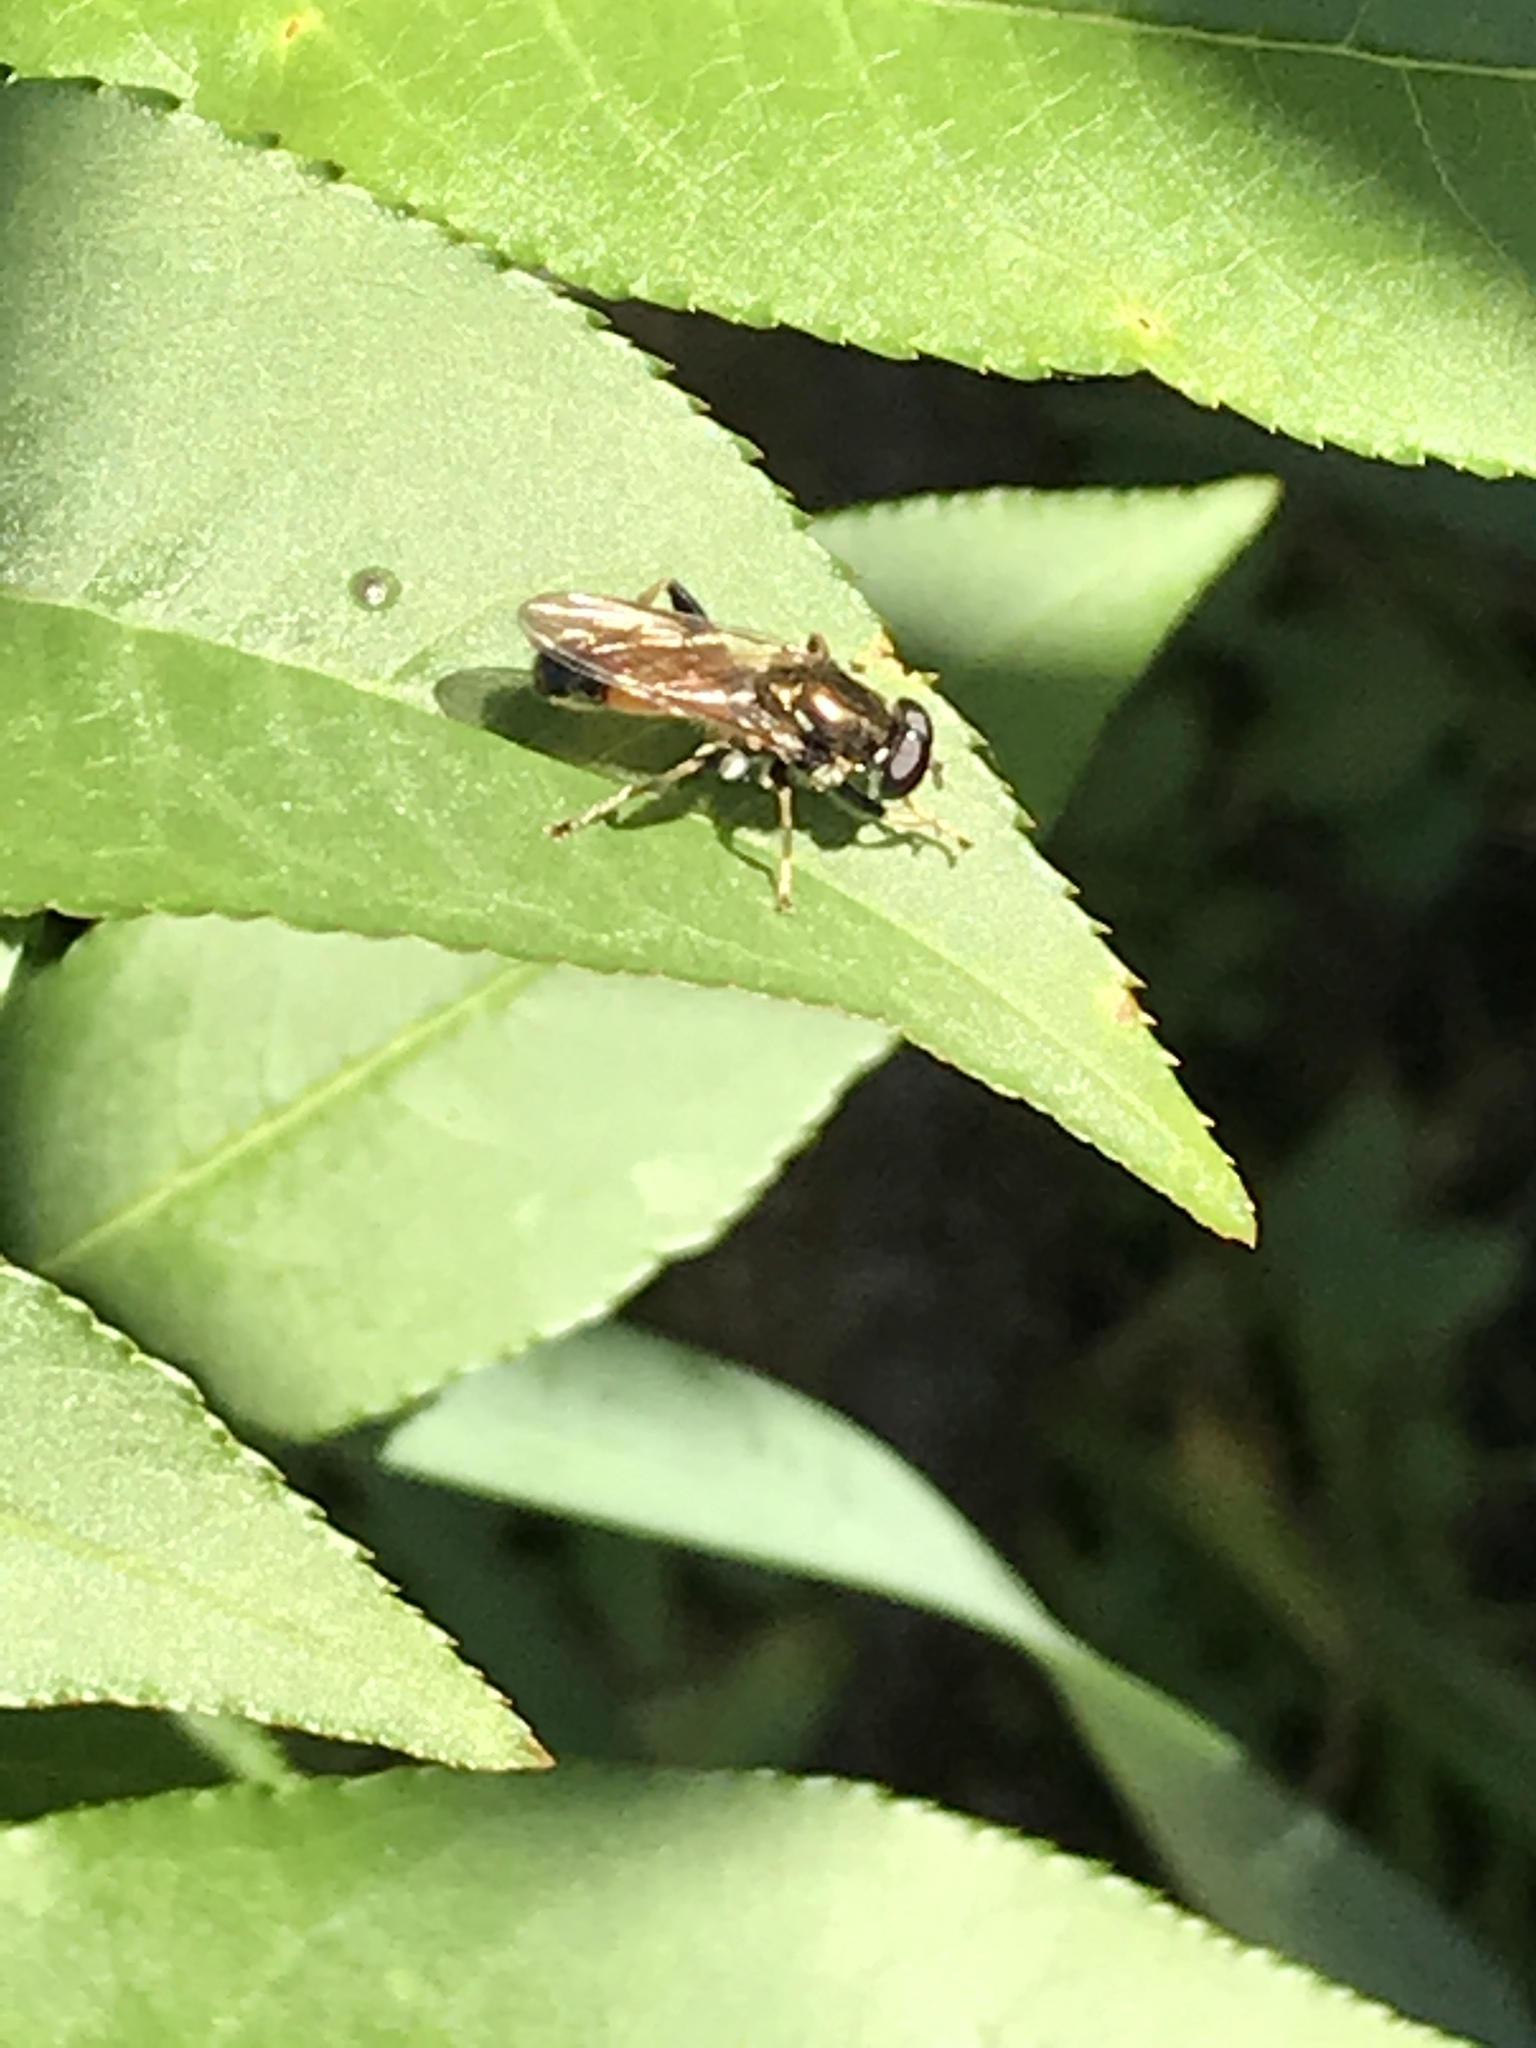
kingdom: Animalia
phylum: Arthropoda
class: Insecta
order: Diptera
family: Syrphidae
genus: Xylota
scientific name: Xylota segnis
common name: Brown-toed forest fly
